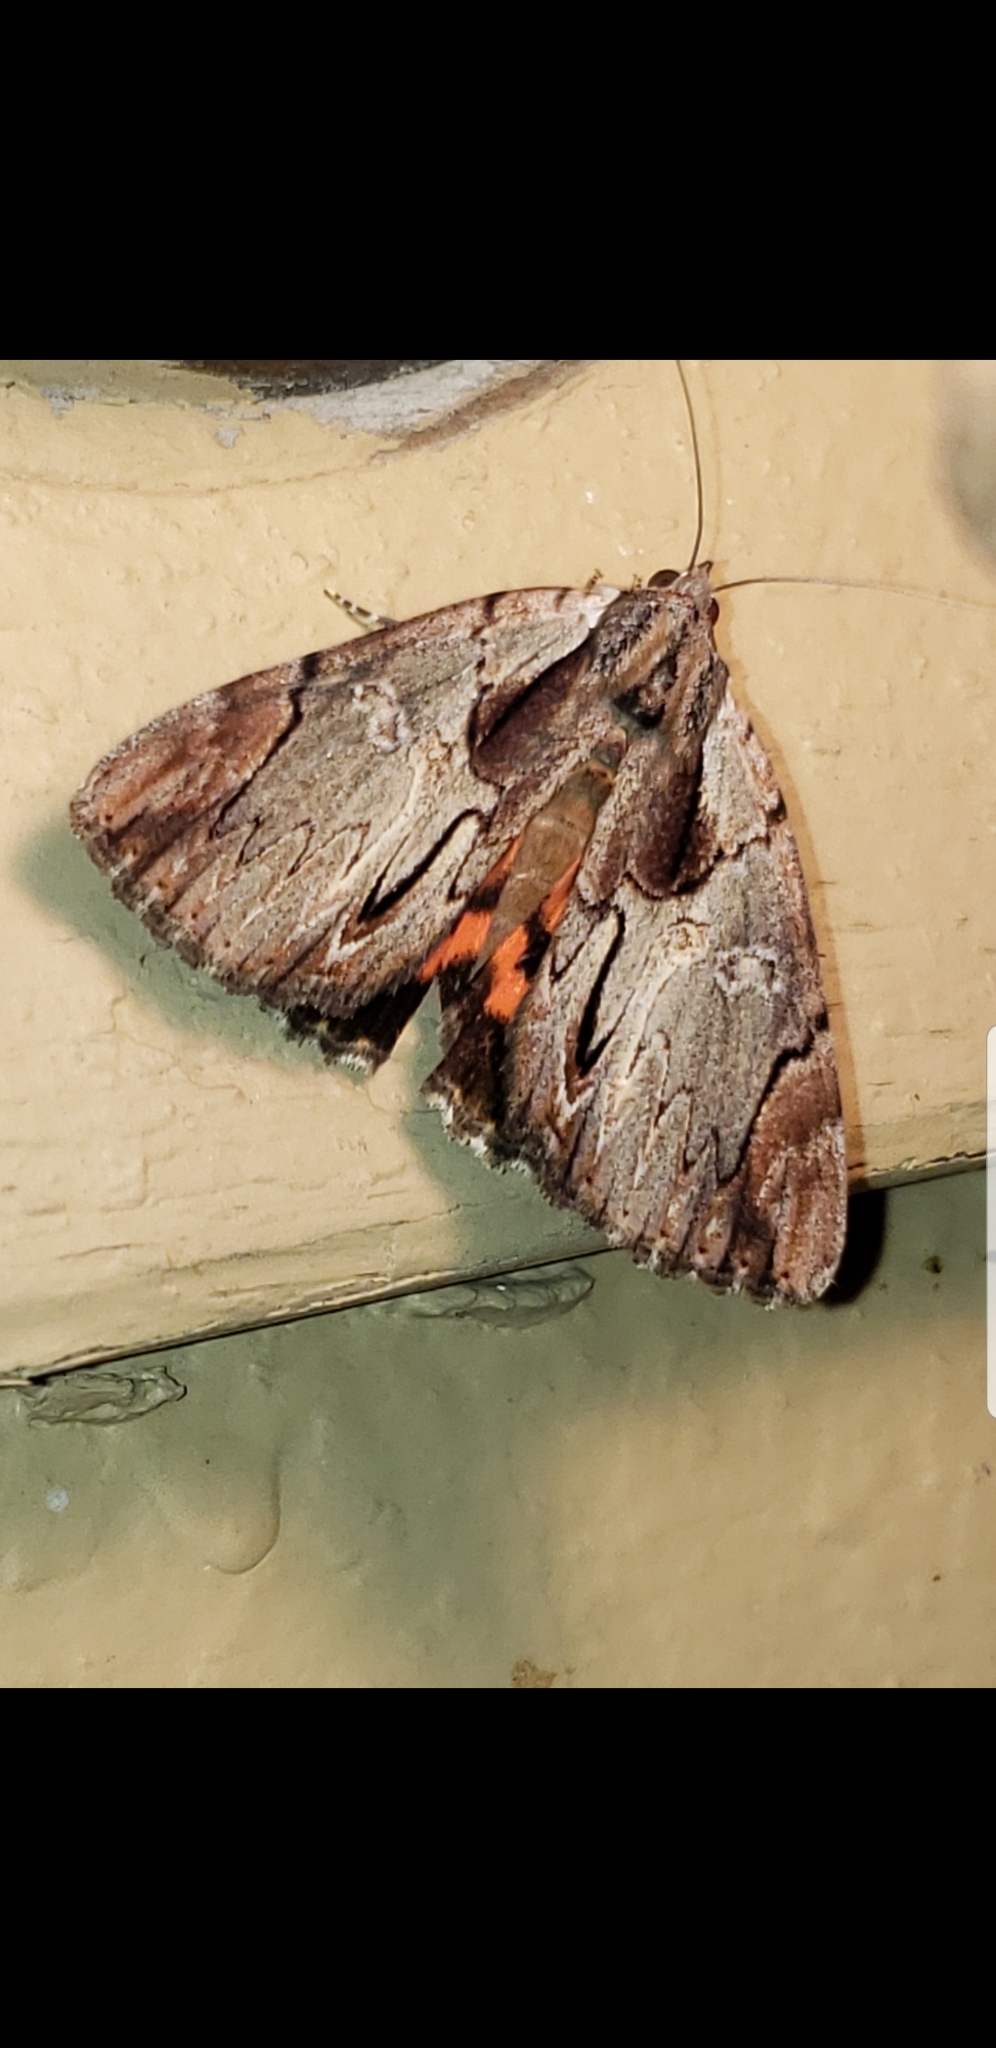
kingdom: Animalia
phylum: Arthropoda
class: Insecta
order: Lepidoptera
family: Erebidae
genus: Catocala
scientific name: Catocala ultronia
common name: Ultronia underwing
